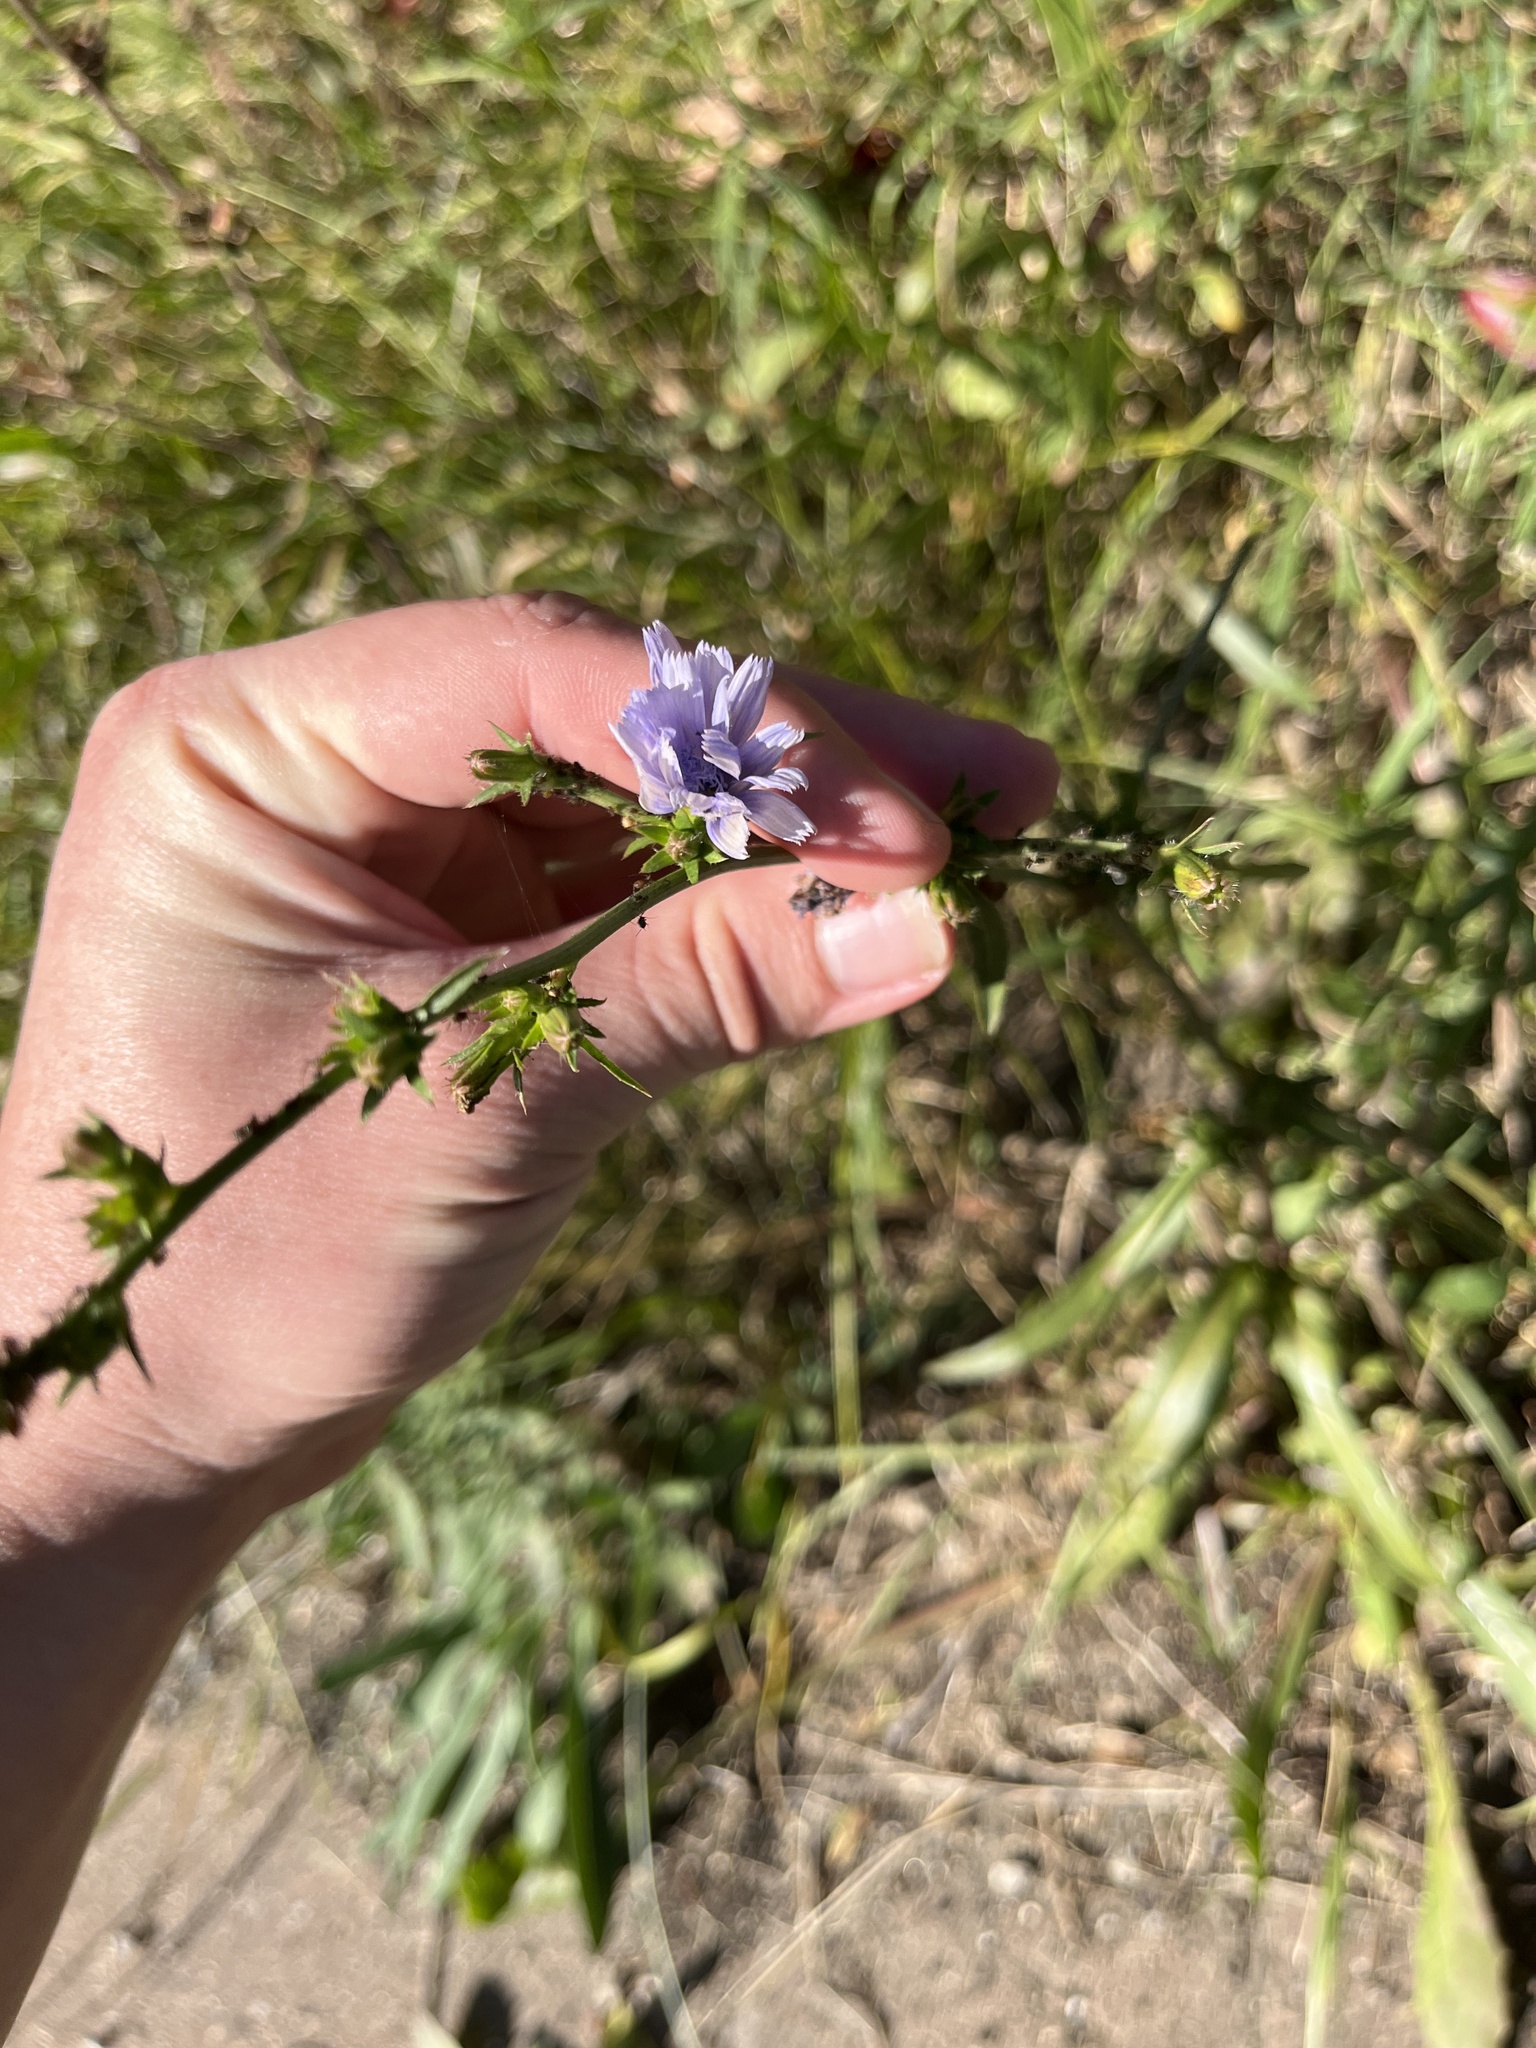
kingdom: Plantae
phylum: Tracheophyta
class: Magnoliopsida
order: Asterales
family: Asteraceae
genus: Cichorium
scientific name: Cichorium intybus
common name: Chicory
